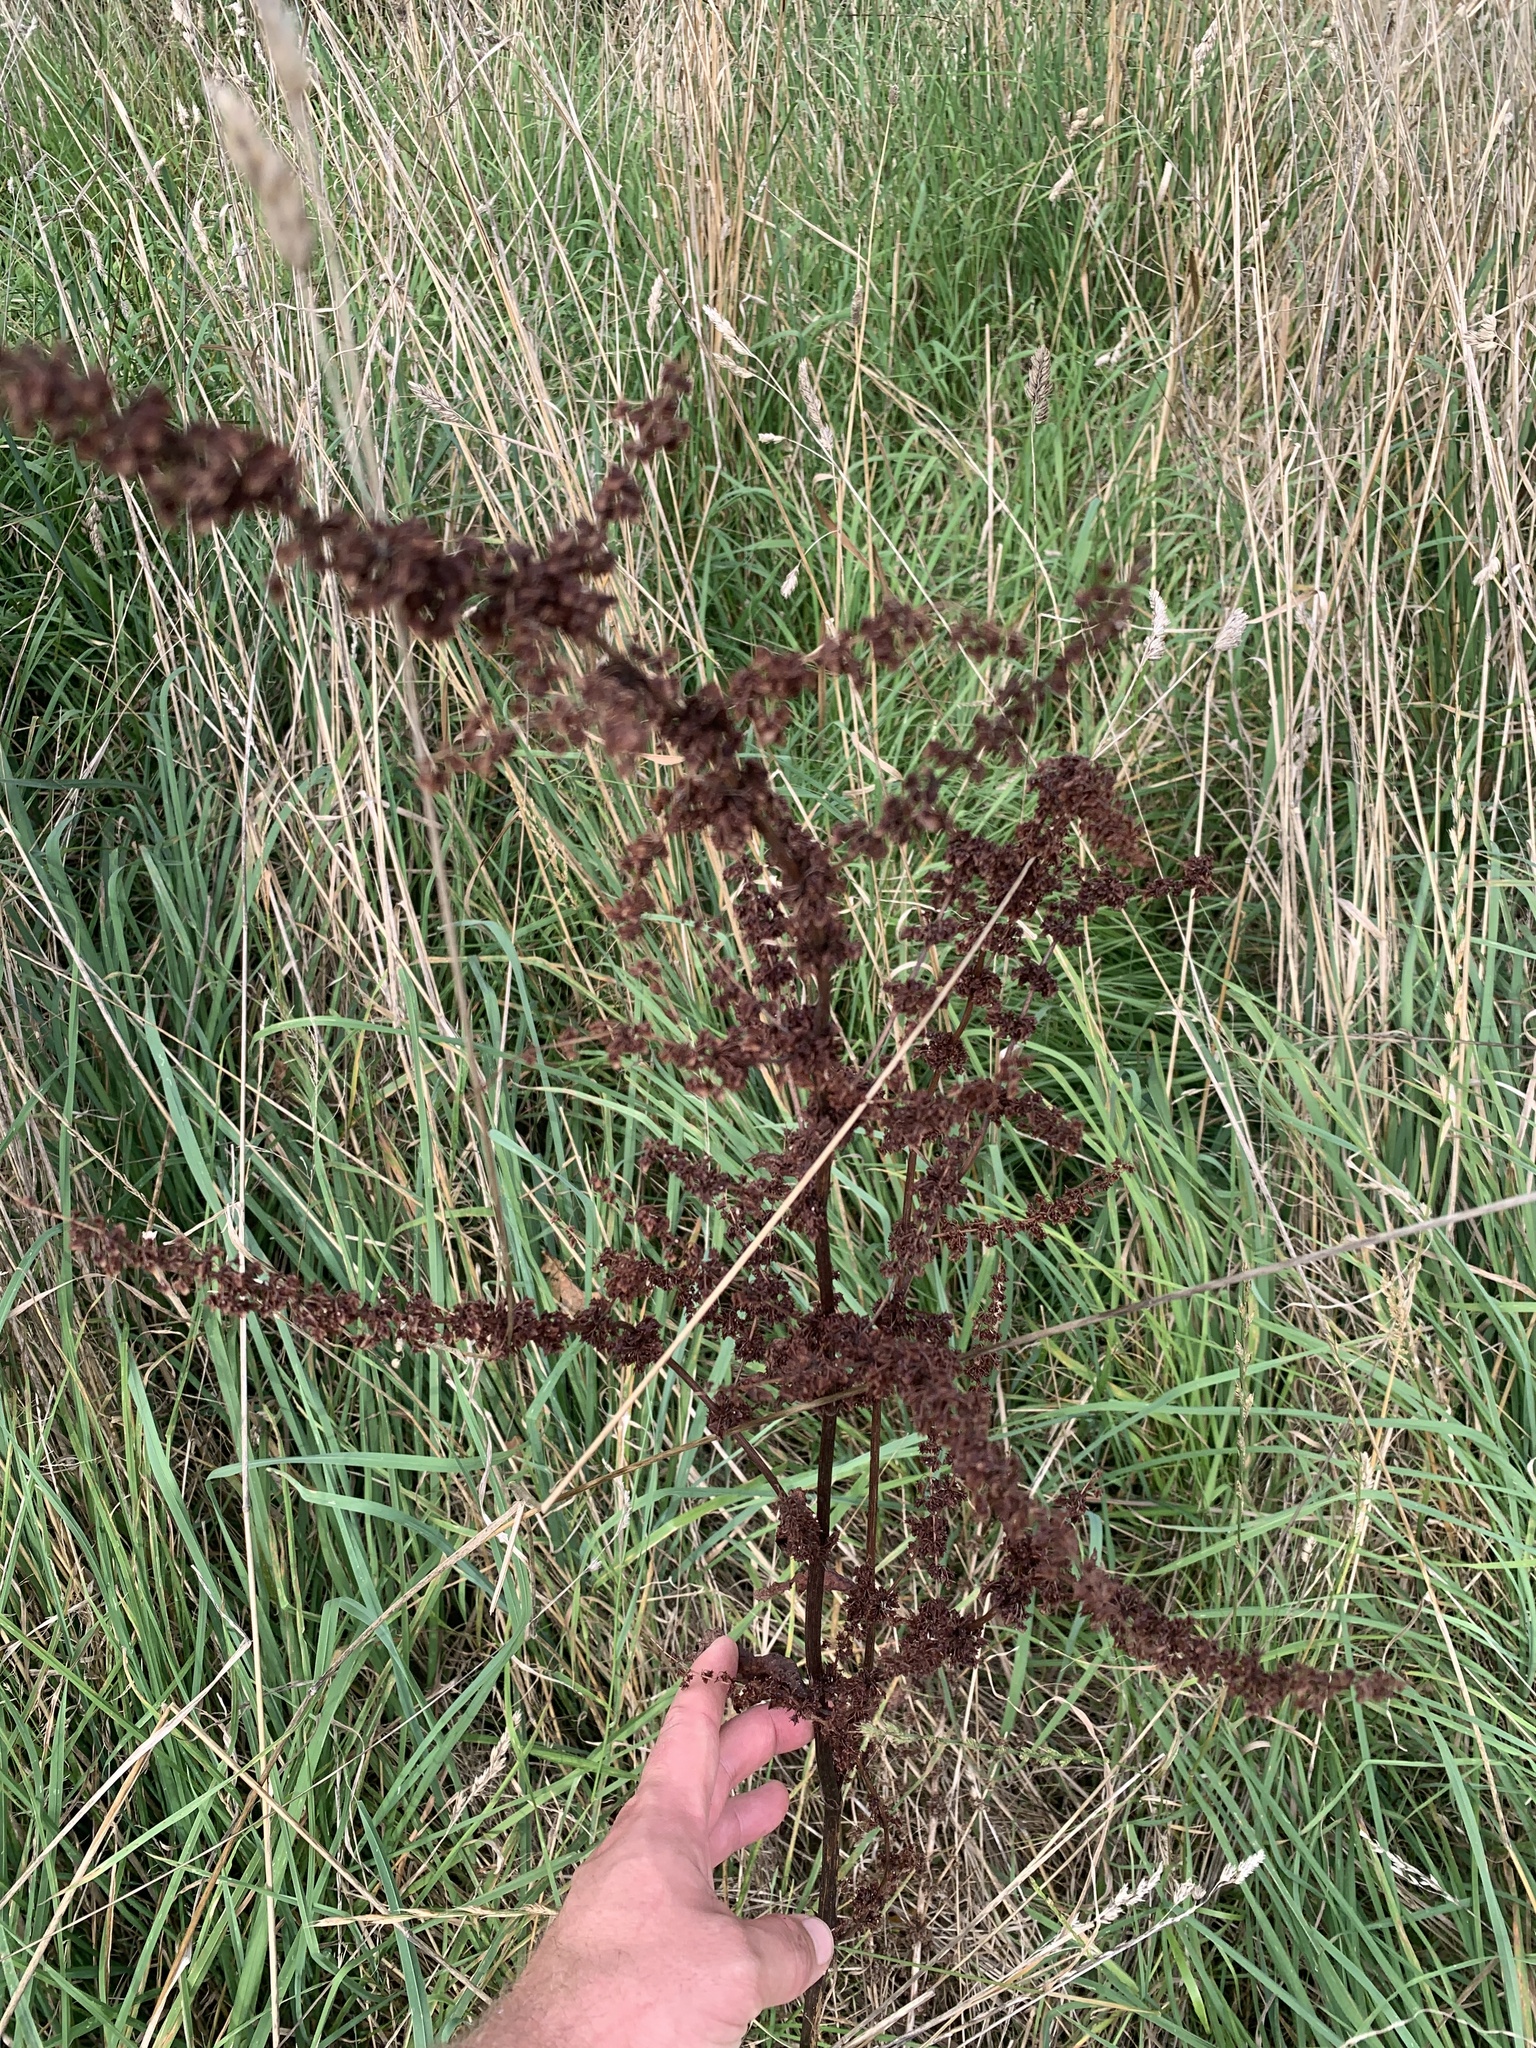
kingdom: Plantae
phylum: Tracheophyta
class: Magnoliopsida
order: Caryophyllales
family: Polygonaceae
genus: Rumex
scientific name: Rumex crispus
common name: Curled dock
